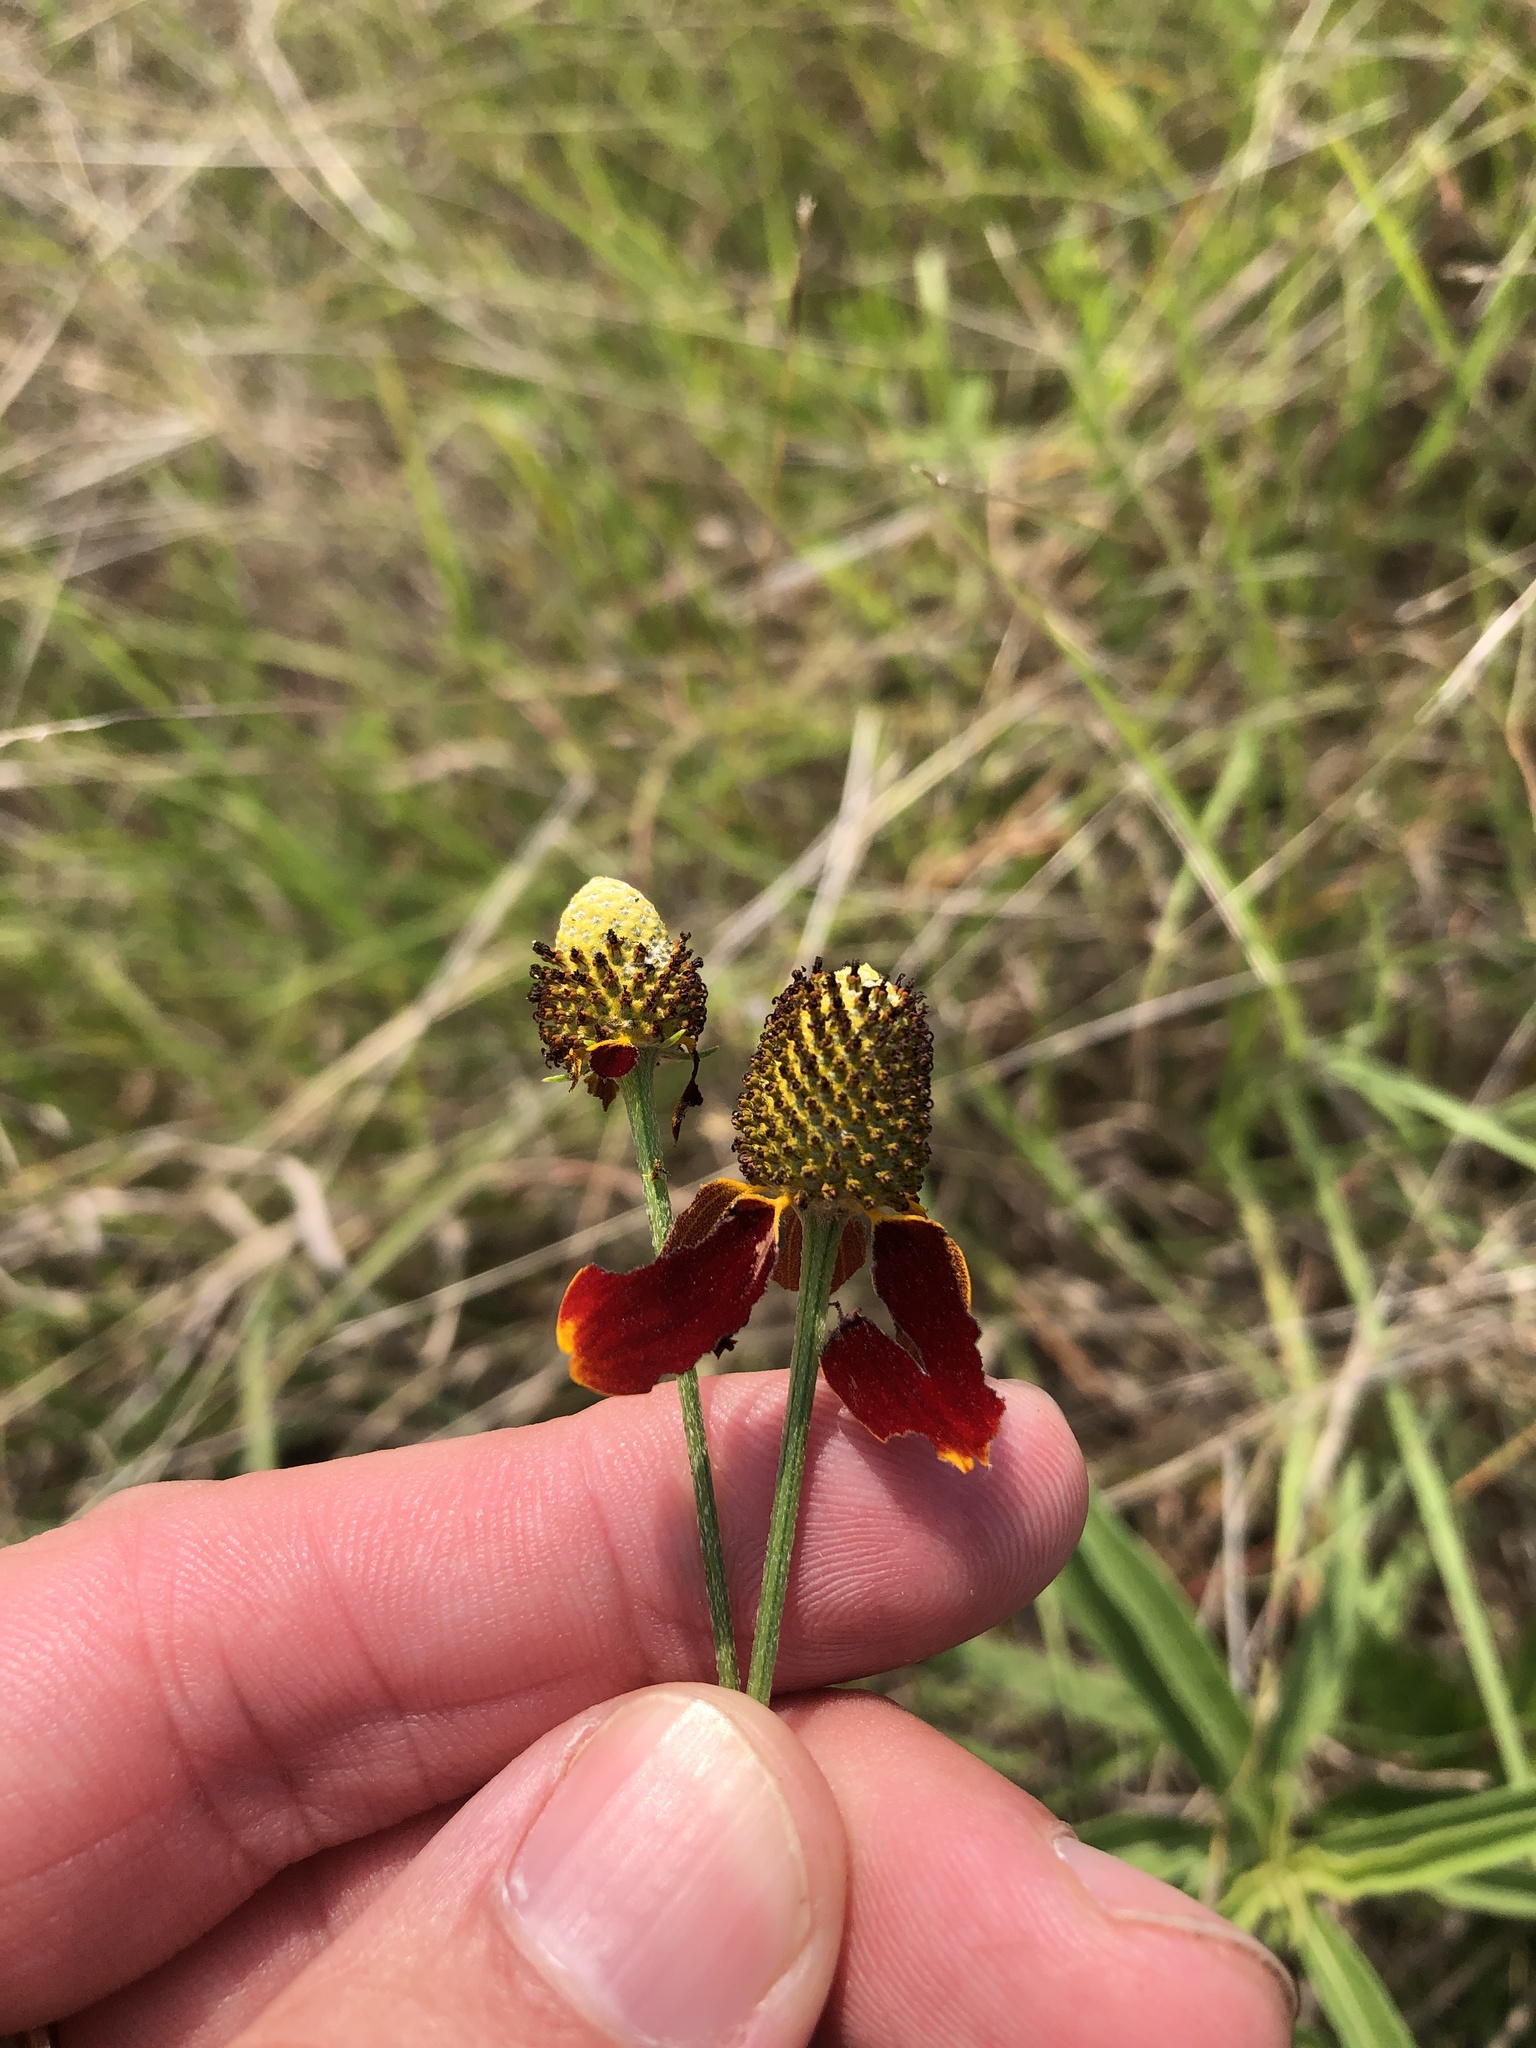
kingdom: Plantae
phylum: Tracheophyta
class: Magnoliopsida
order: Asterales
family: Asteraceae
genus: Ratibida
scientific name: Ratibida columnifera
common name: Prairie coneflower
